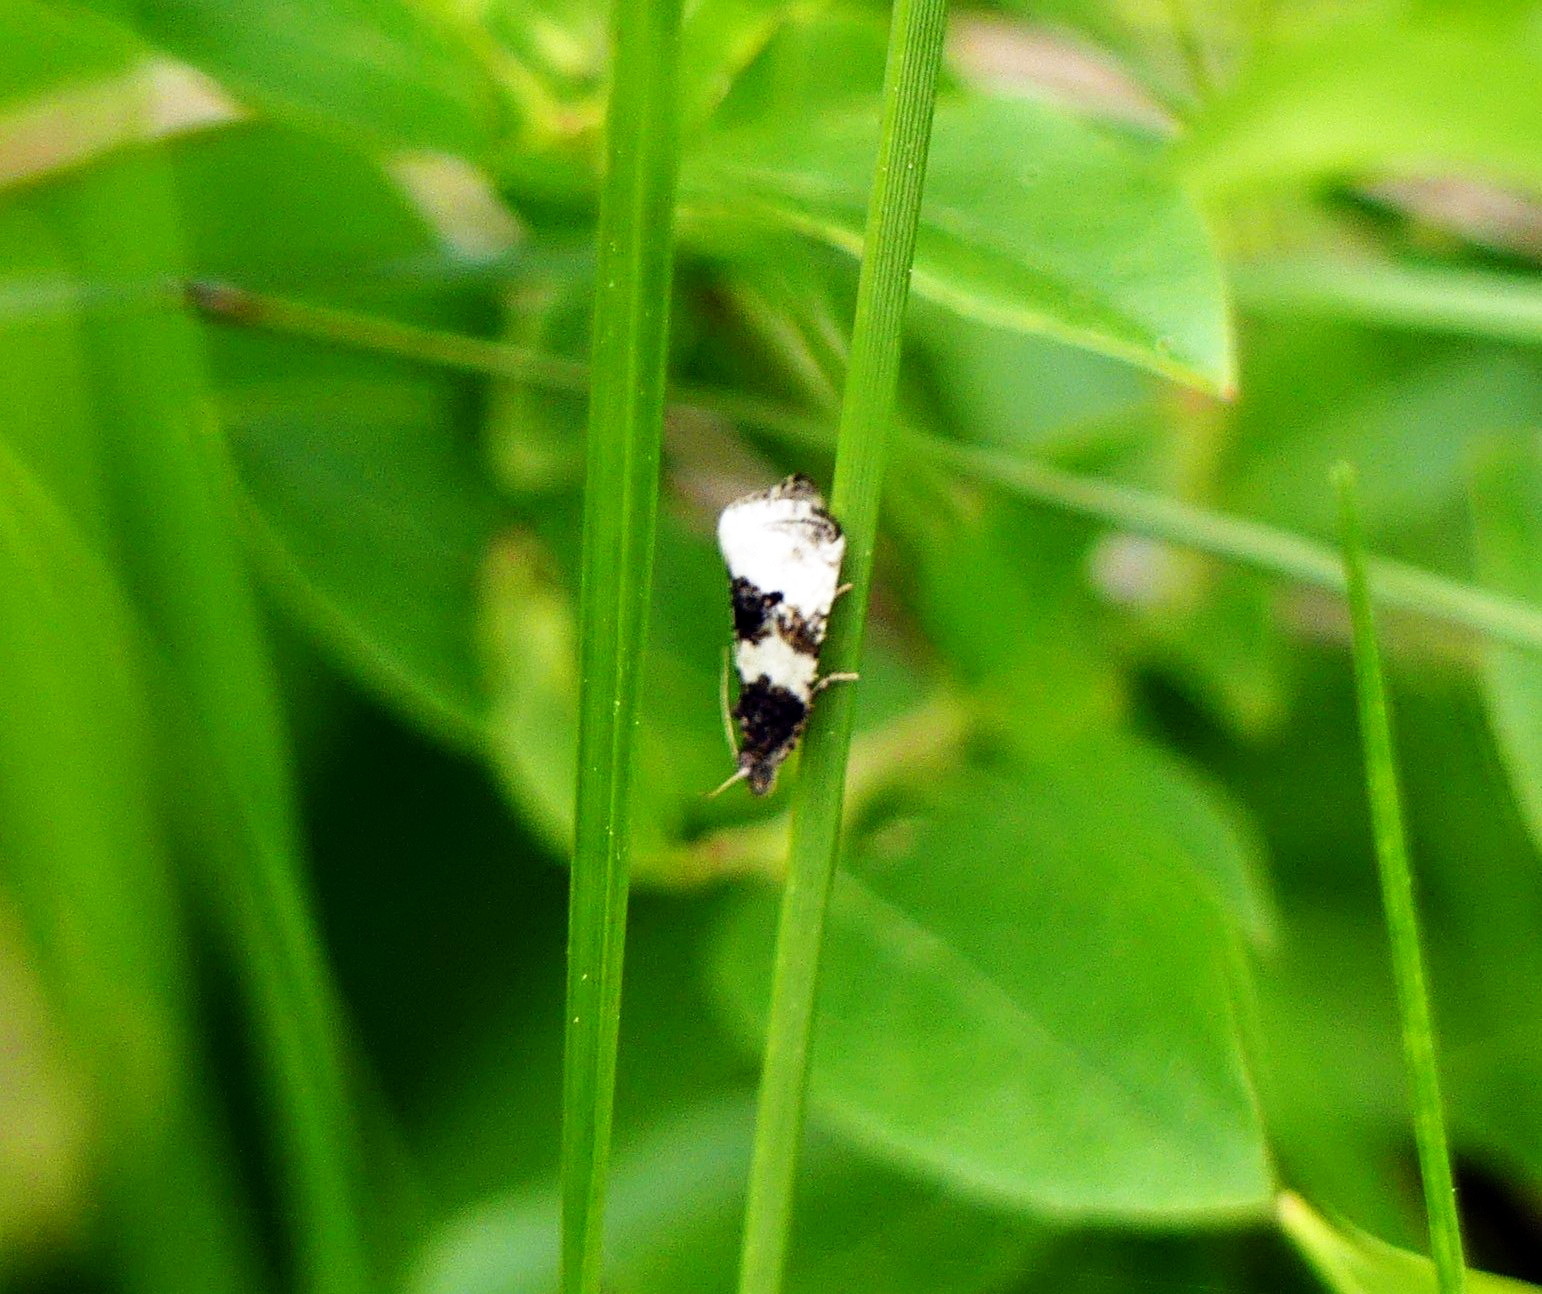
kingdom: Animalia
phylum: Arthropoda
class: Insecta
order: Lepidoptera
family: Tortricidae
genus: Olethreutes
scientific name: Olethreutes bipartitana
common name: Divided olethreutes moth
